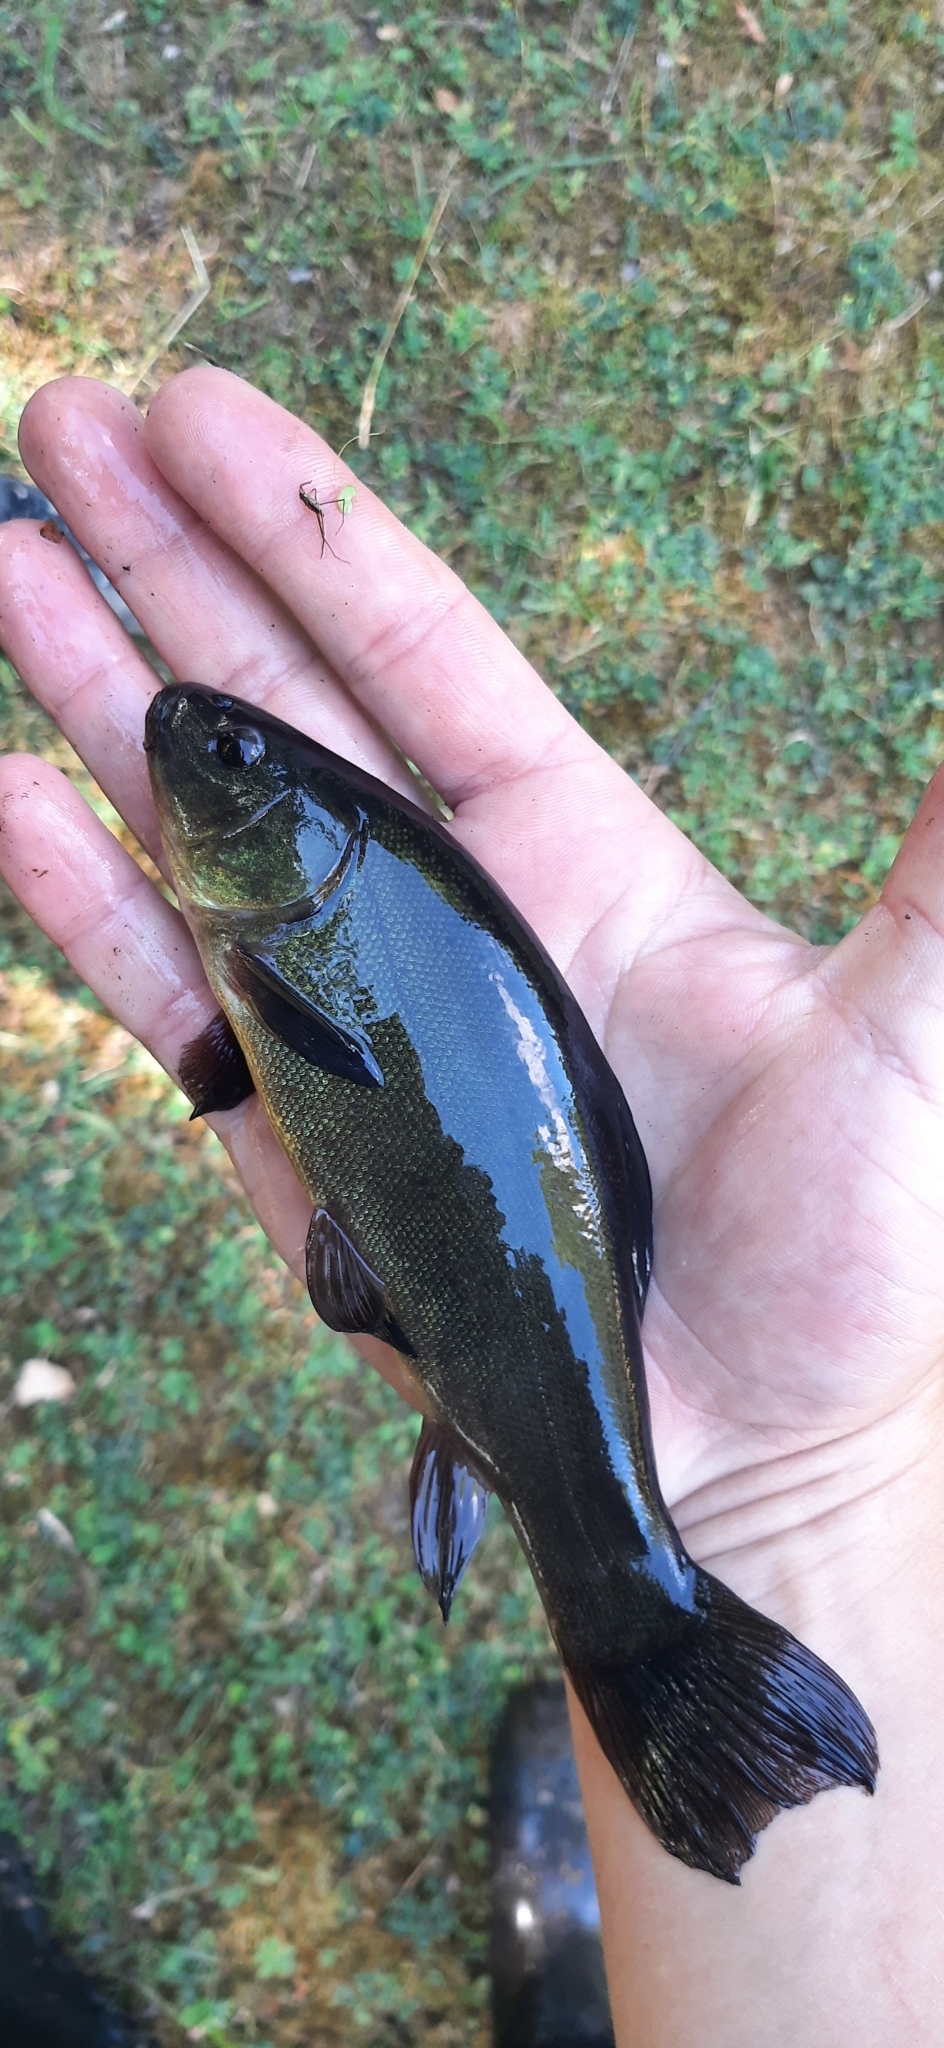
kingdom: Animalia
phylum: Chordata
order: Cypriniformes
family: Cyprinidae
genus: Tinca
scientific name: Tinca tinca
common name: Tench
